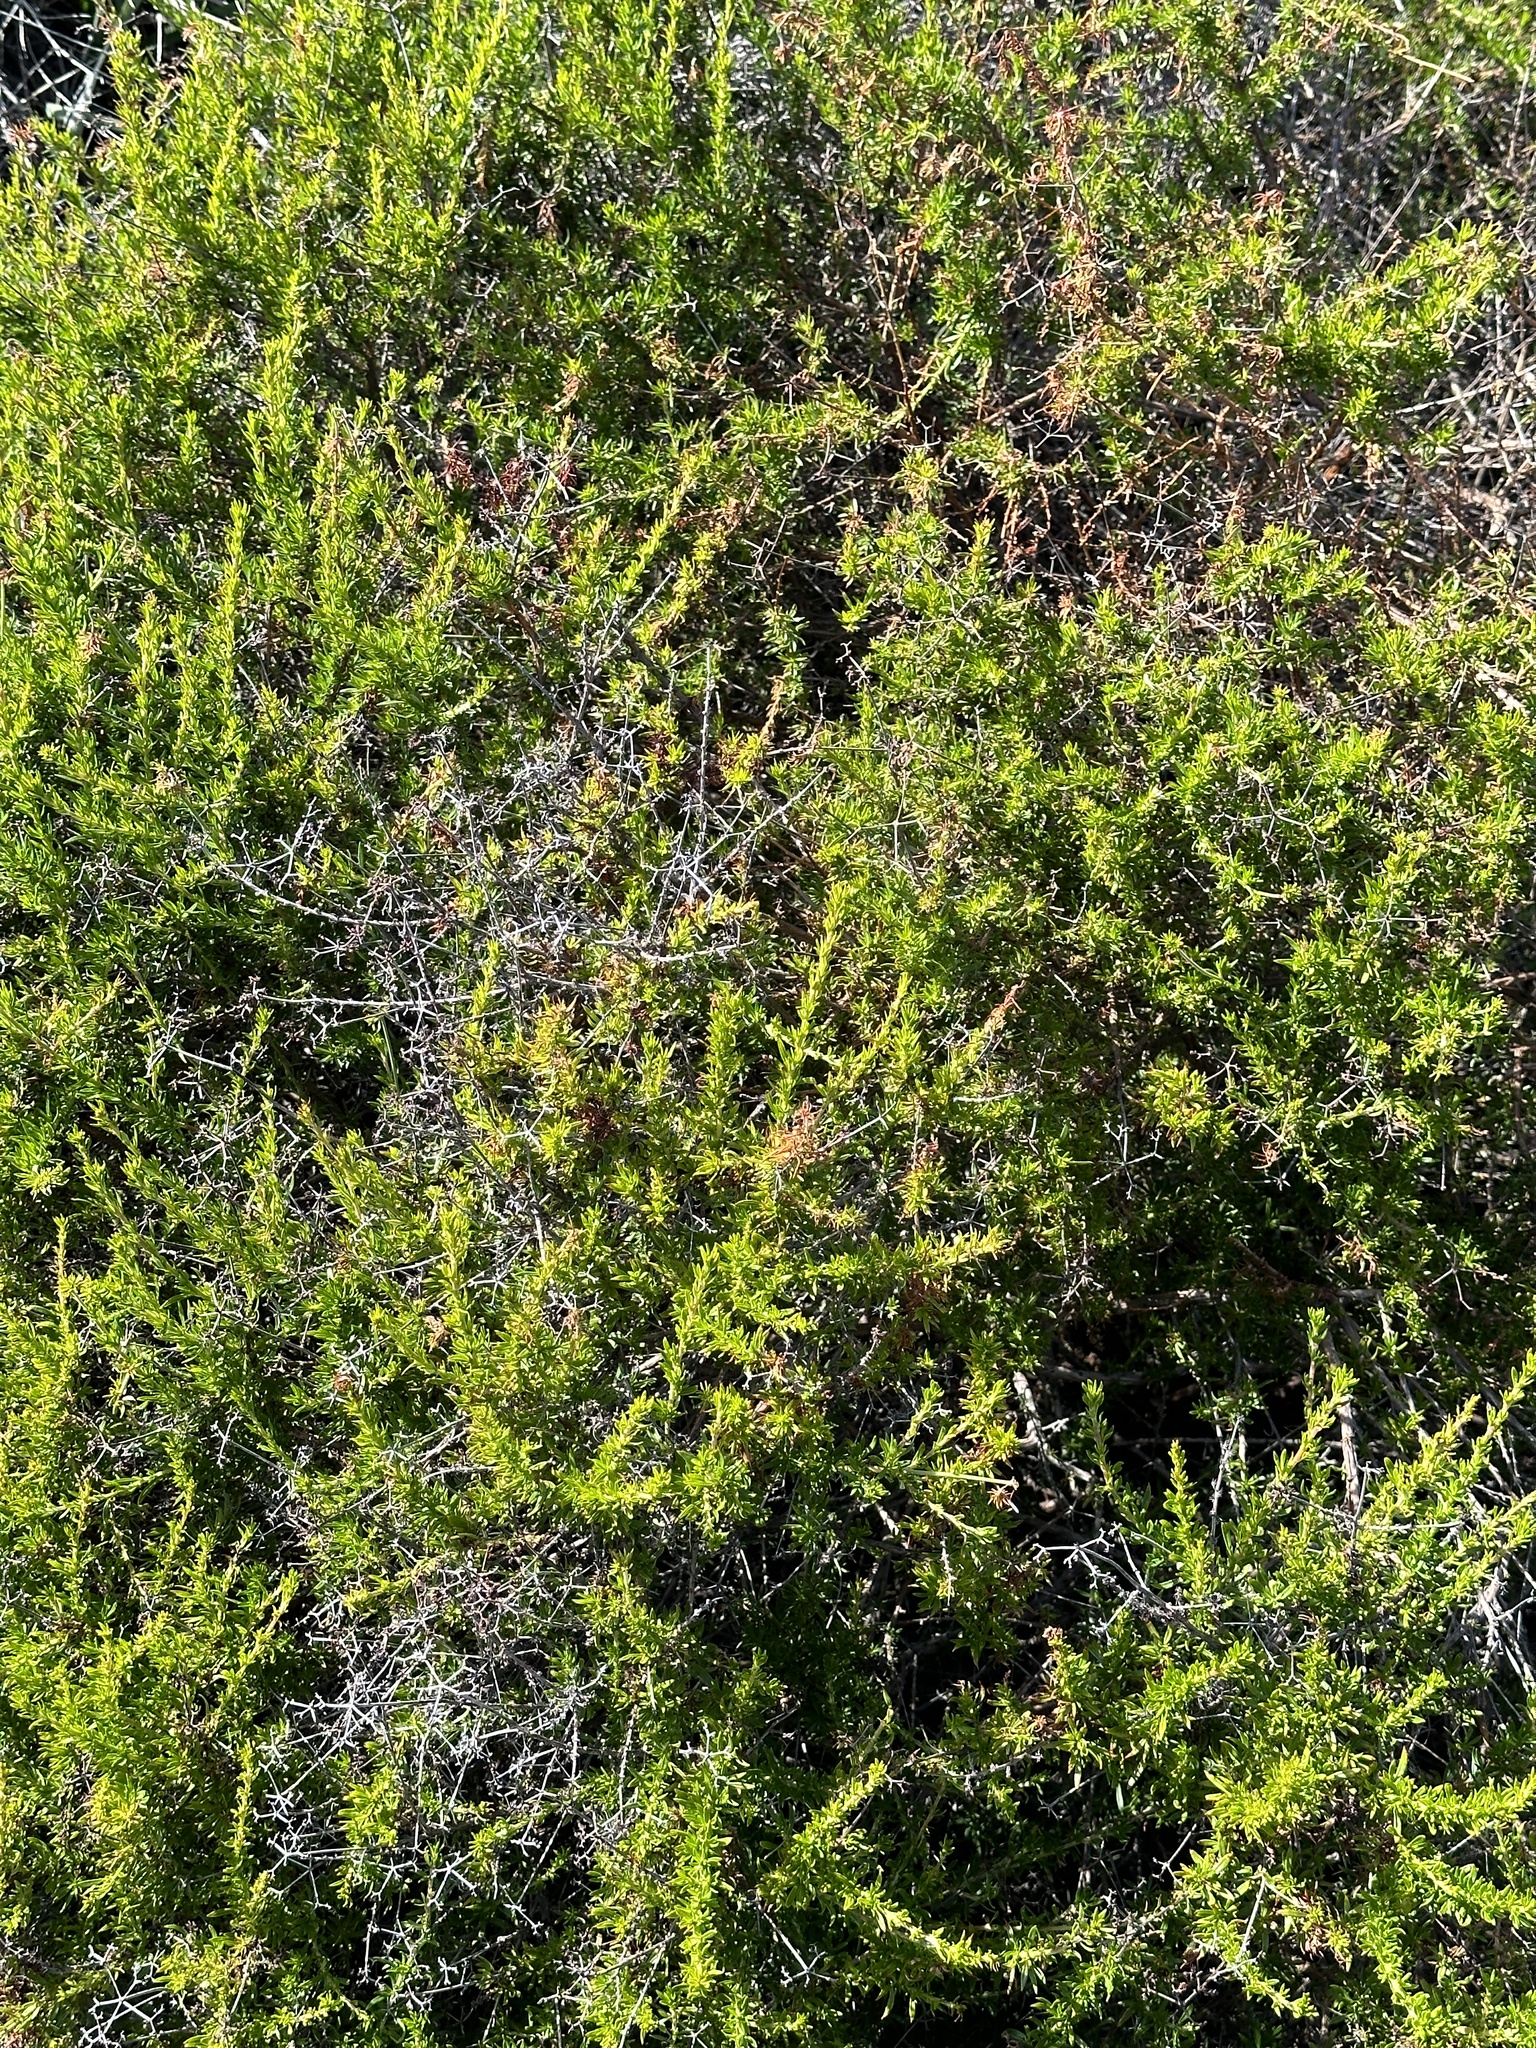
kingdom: Plantae
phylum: Tracheophyta
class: Magnoliopsida
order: Caryophyllales
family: Polygonaceae
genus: Eriogonum
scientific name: Eriogonum fasciculatum
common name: California wild buckwheat
